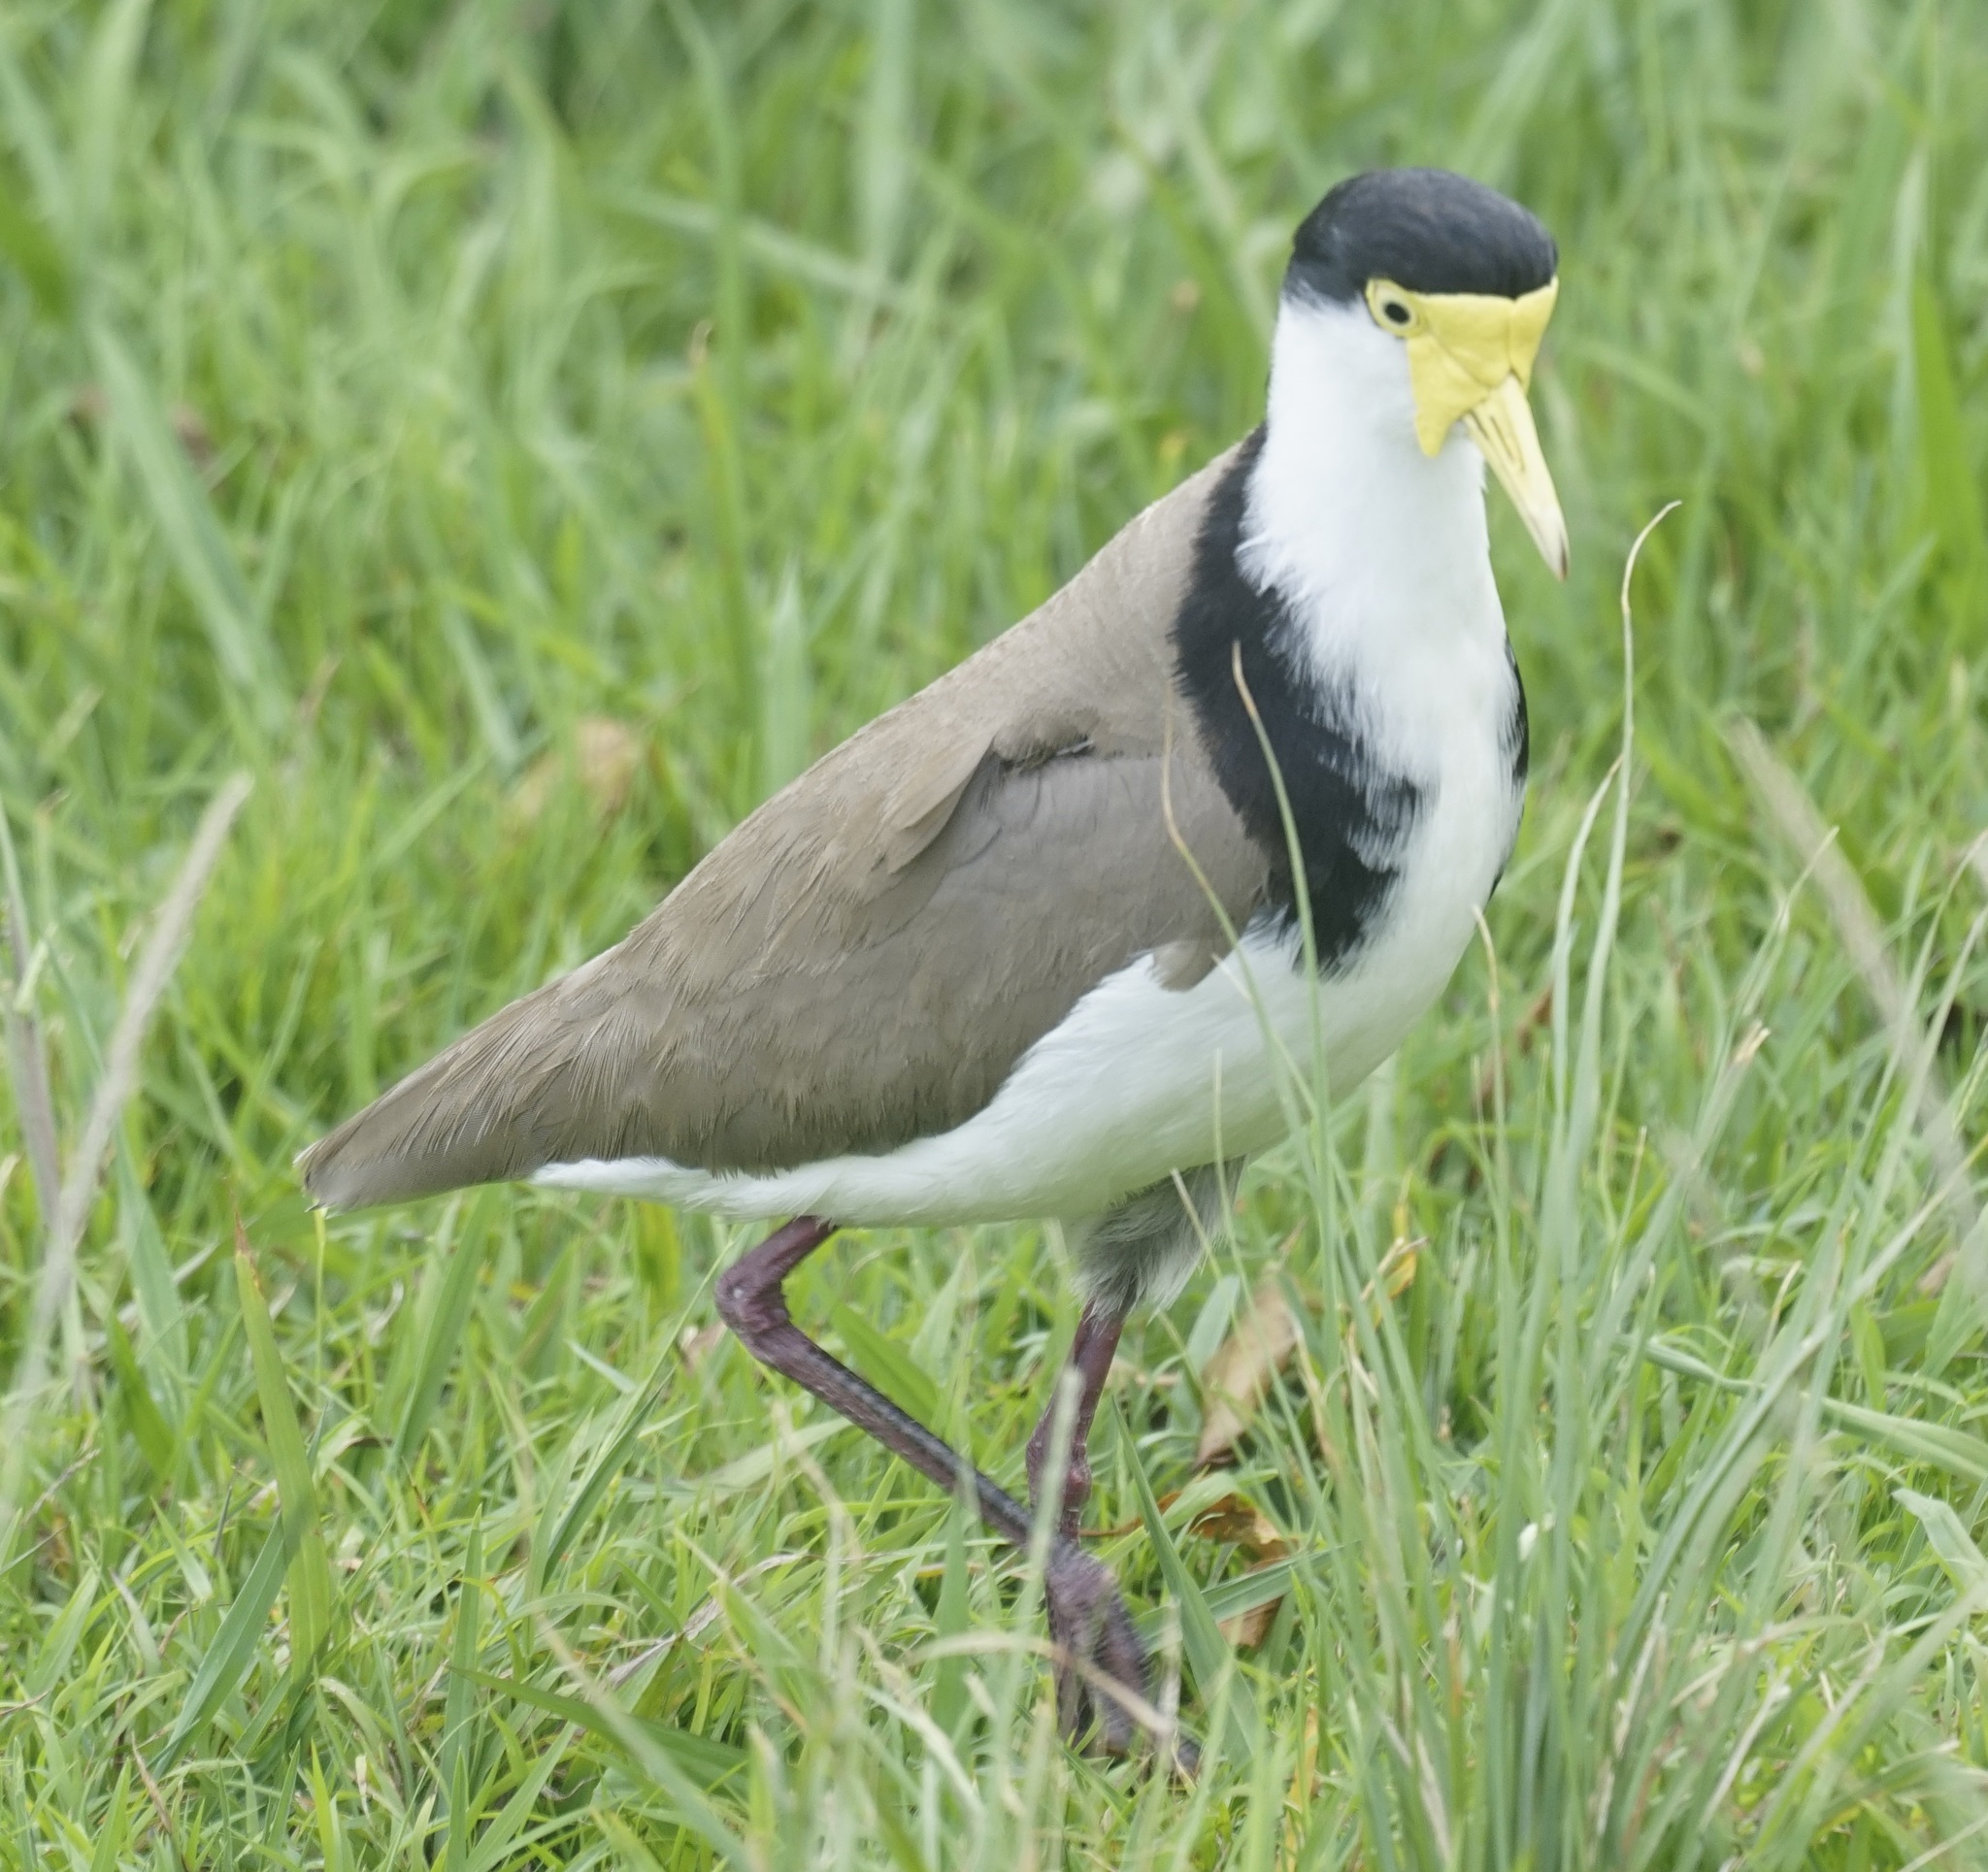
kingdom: Animalia
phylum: Chordata
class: Aves
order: Charadriiformes
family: Charadriidae
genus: Vanellus
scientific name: Vanellus miles
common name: Masked lapwing
